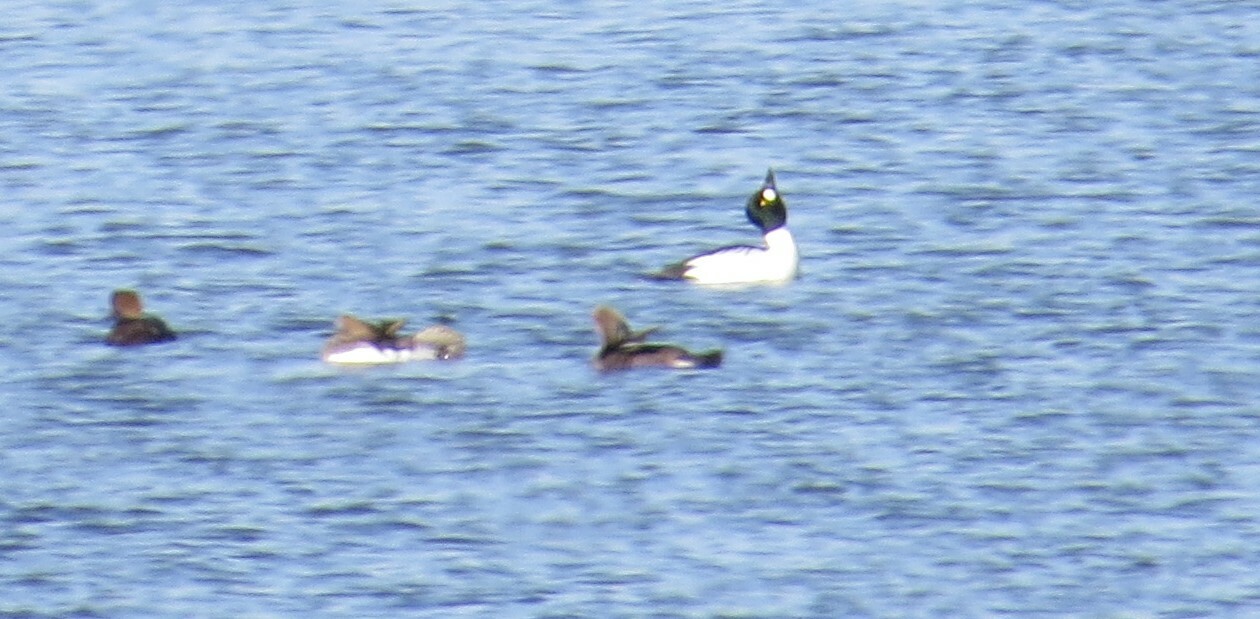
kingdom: Animalia
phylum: Chordata
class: Aves
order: Anseriformes
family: Anatidae
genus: Bucephala
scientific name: Bucephala clangula
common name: Common goldeneye
